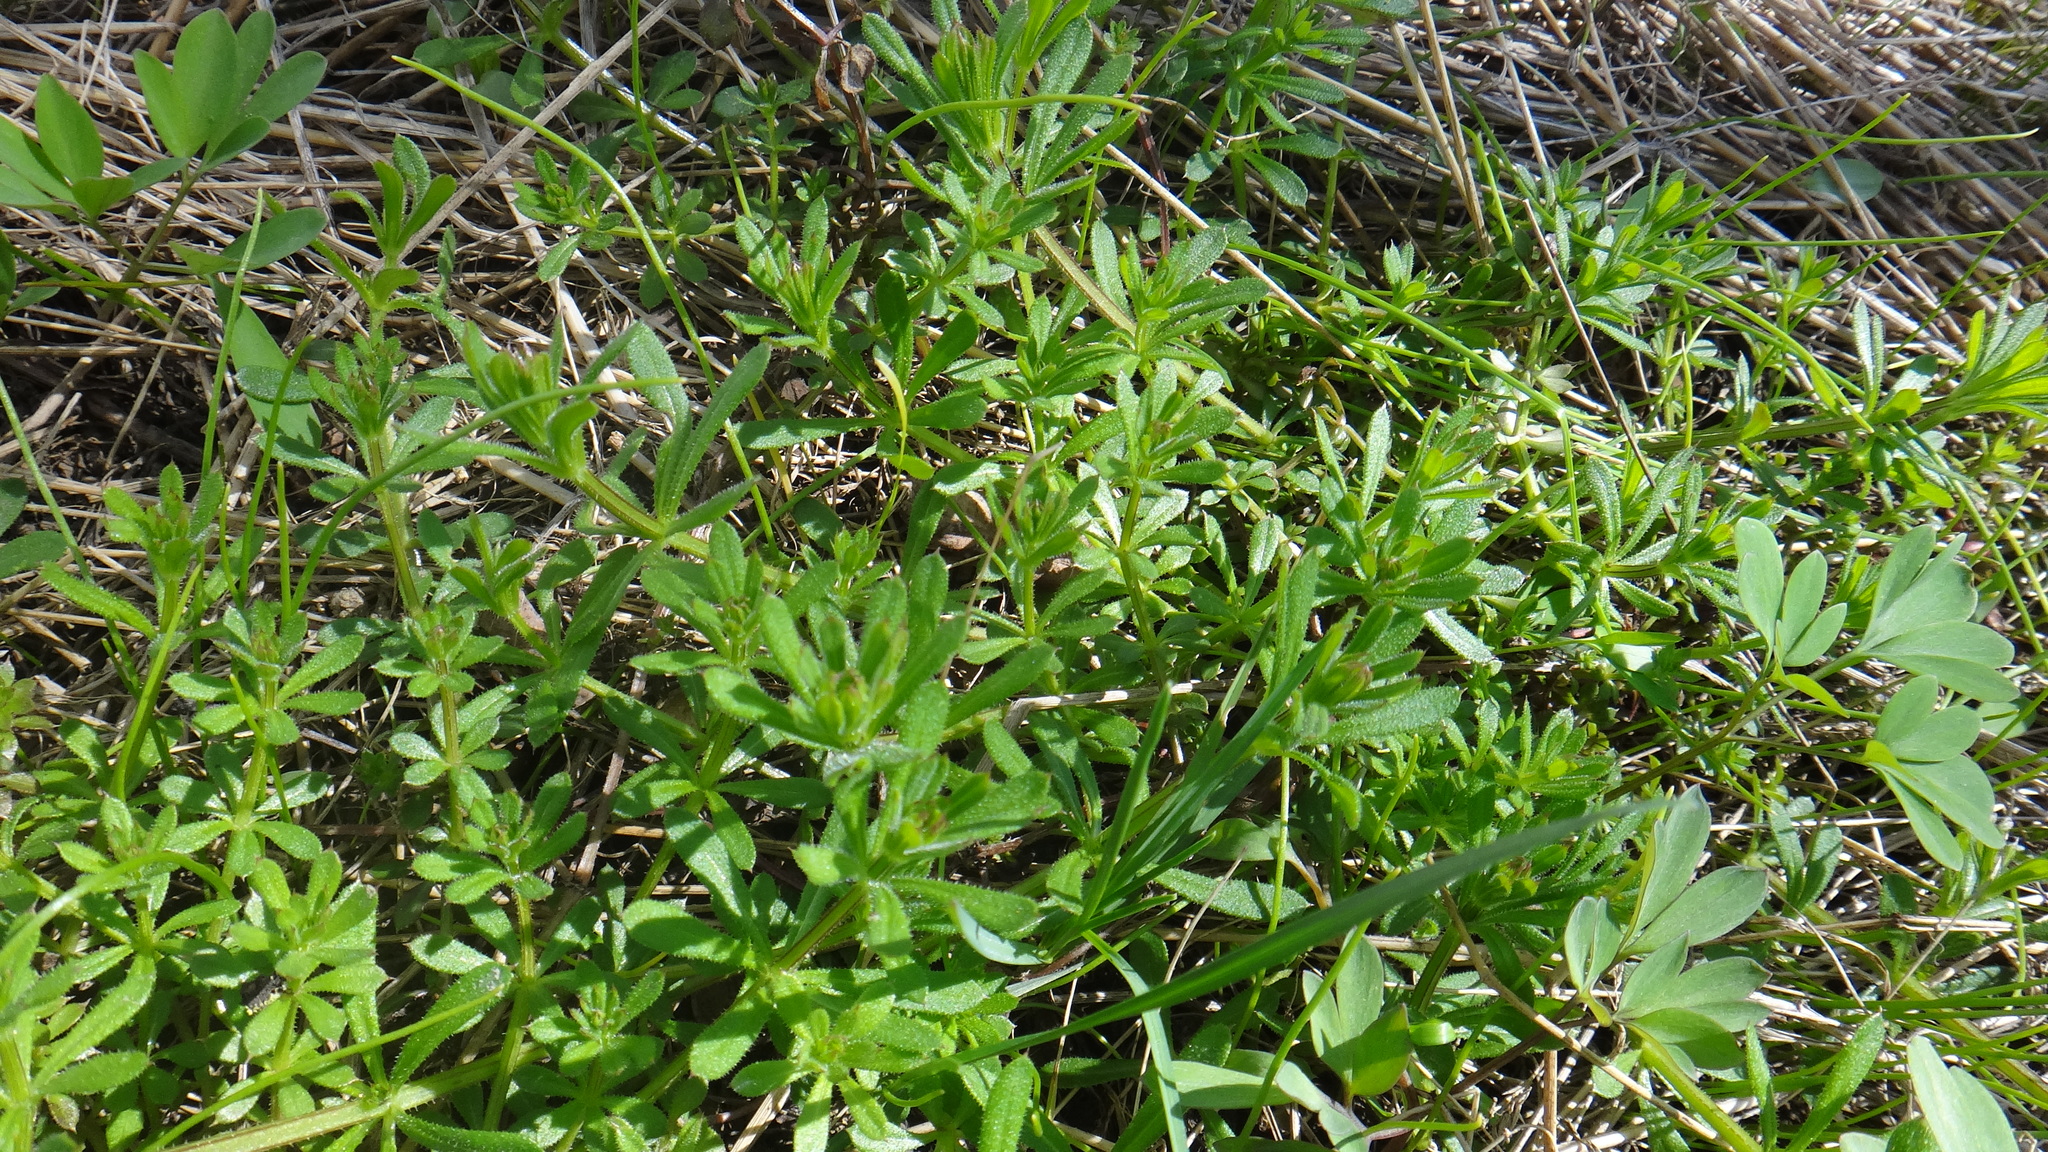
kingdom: Plantae
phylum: Tracheophyta
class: Magnoliopsida
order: Gentianales
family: Rubiaceae
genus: Galium
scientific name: Galium aparine
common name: Cleavers
